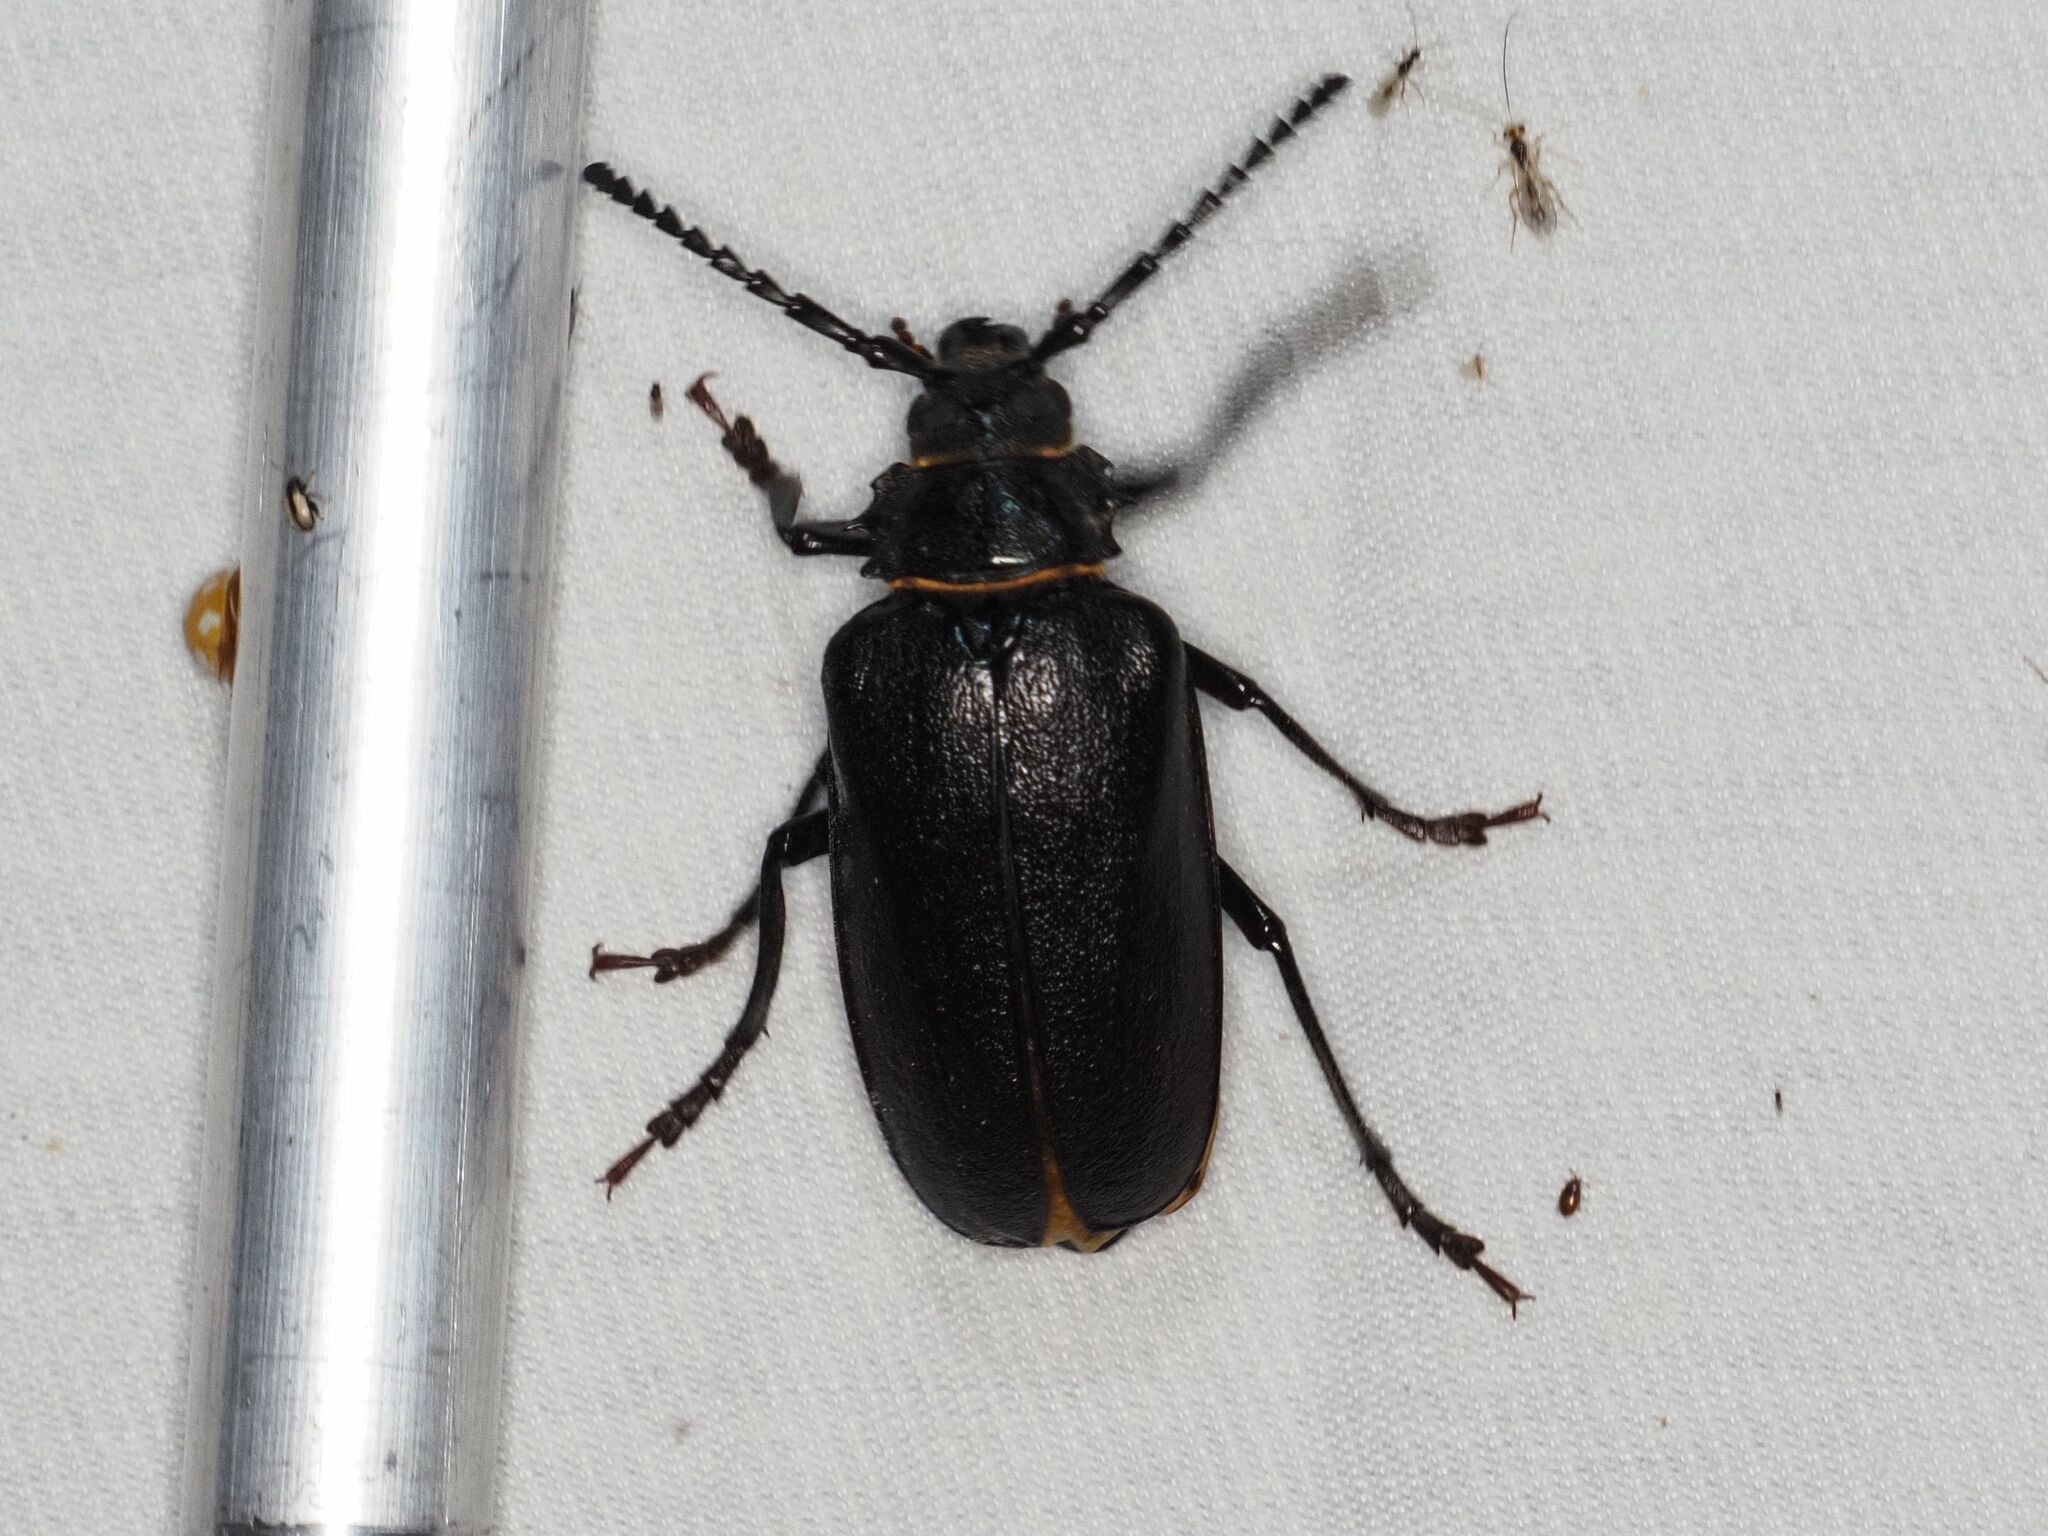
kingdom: Animalia
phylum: Arthropoda
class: Insecta
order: Coleoptera
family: Cerambycidae
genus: Prionus
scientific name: Prionus coriarius
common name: Tanner beetle
